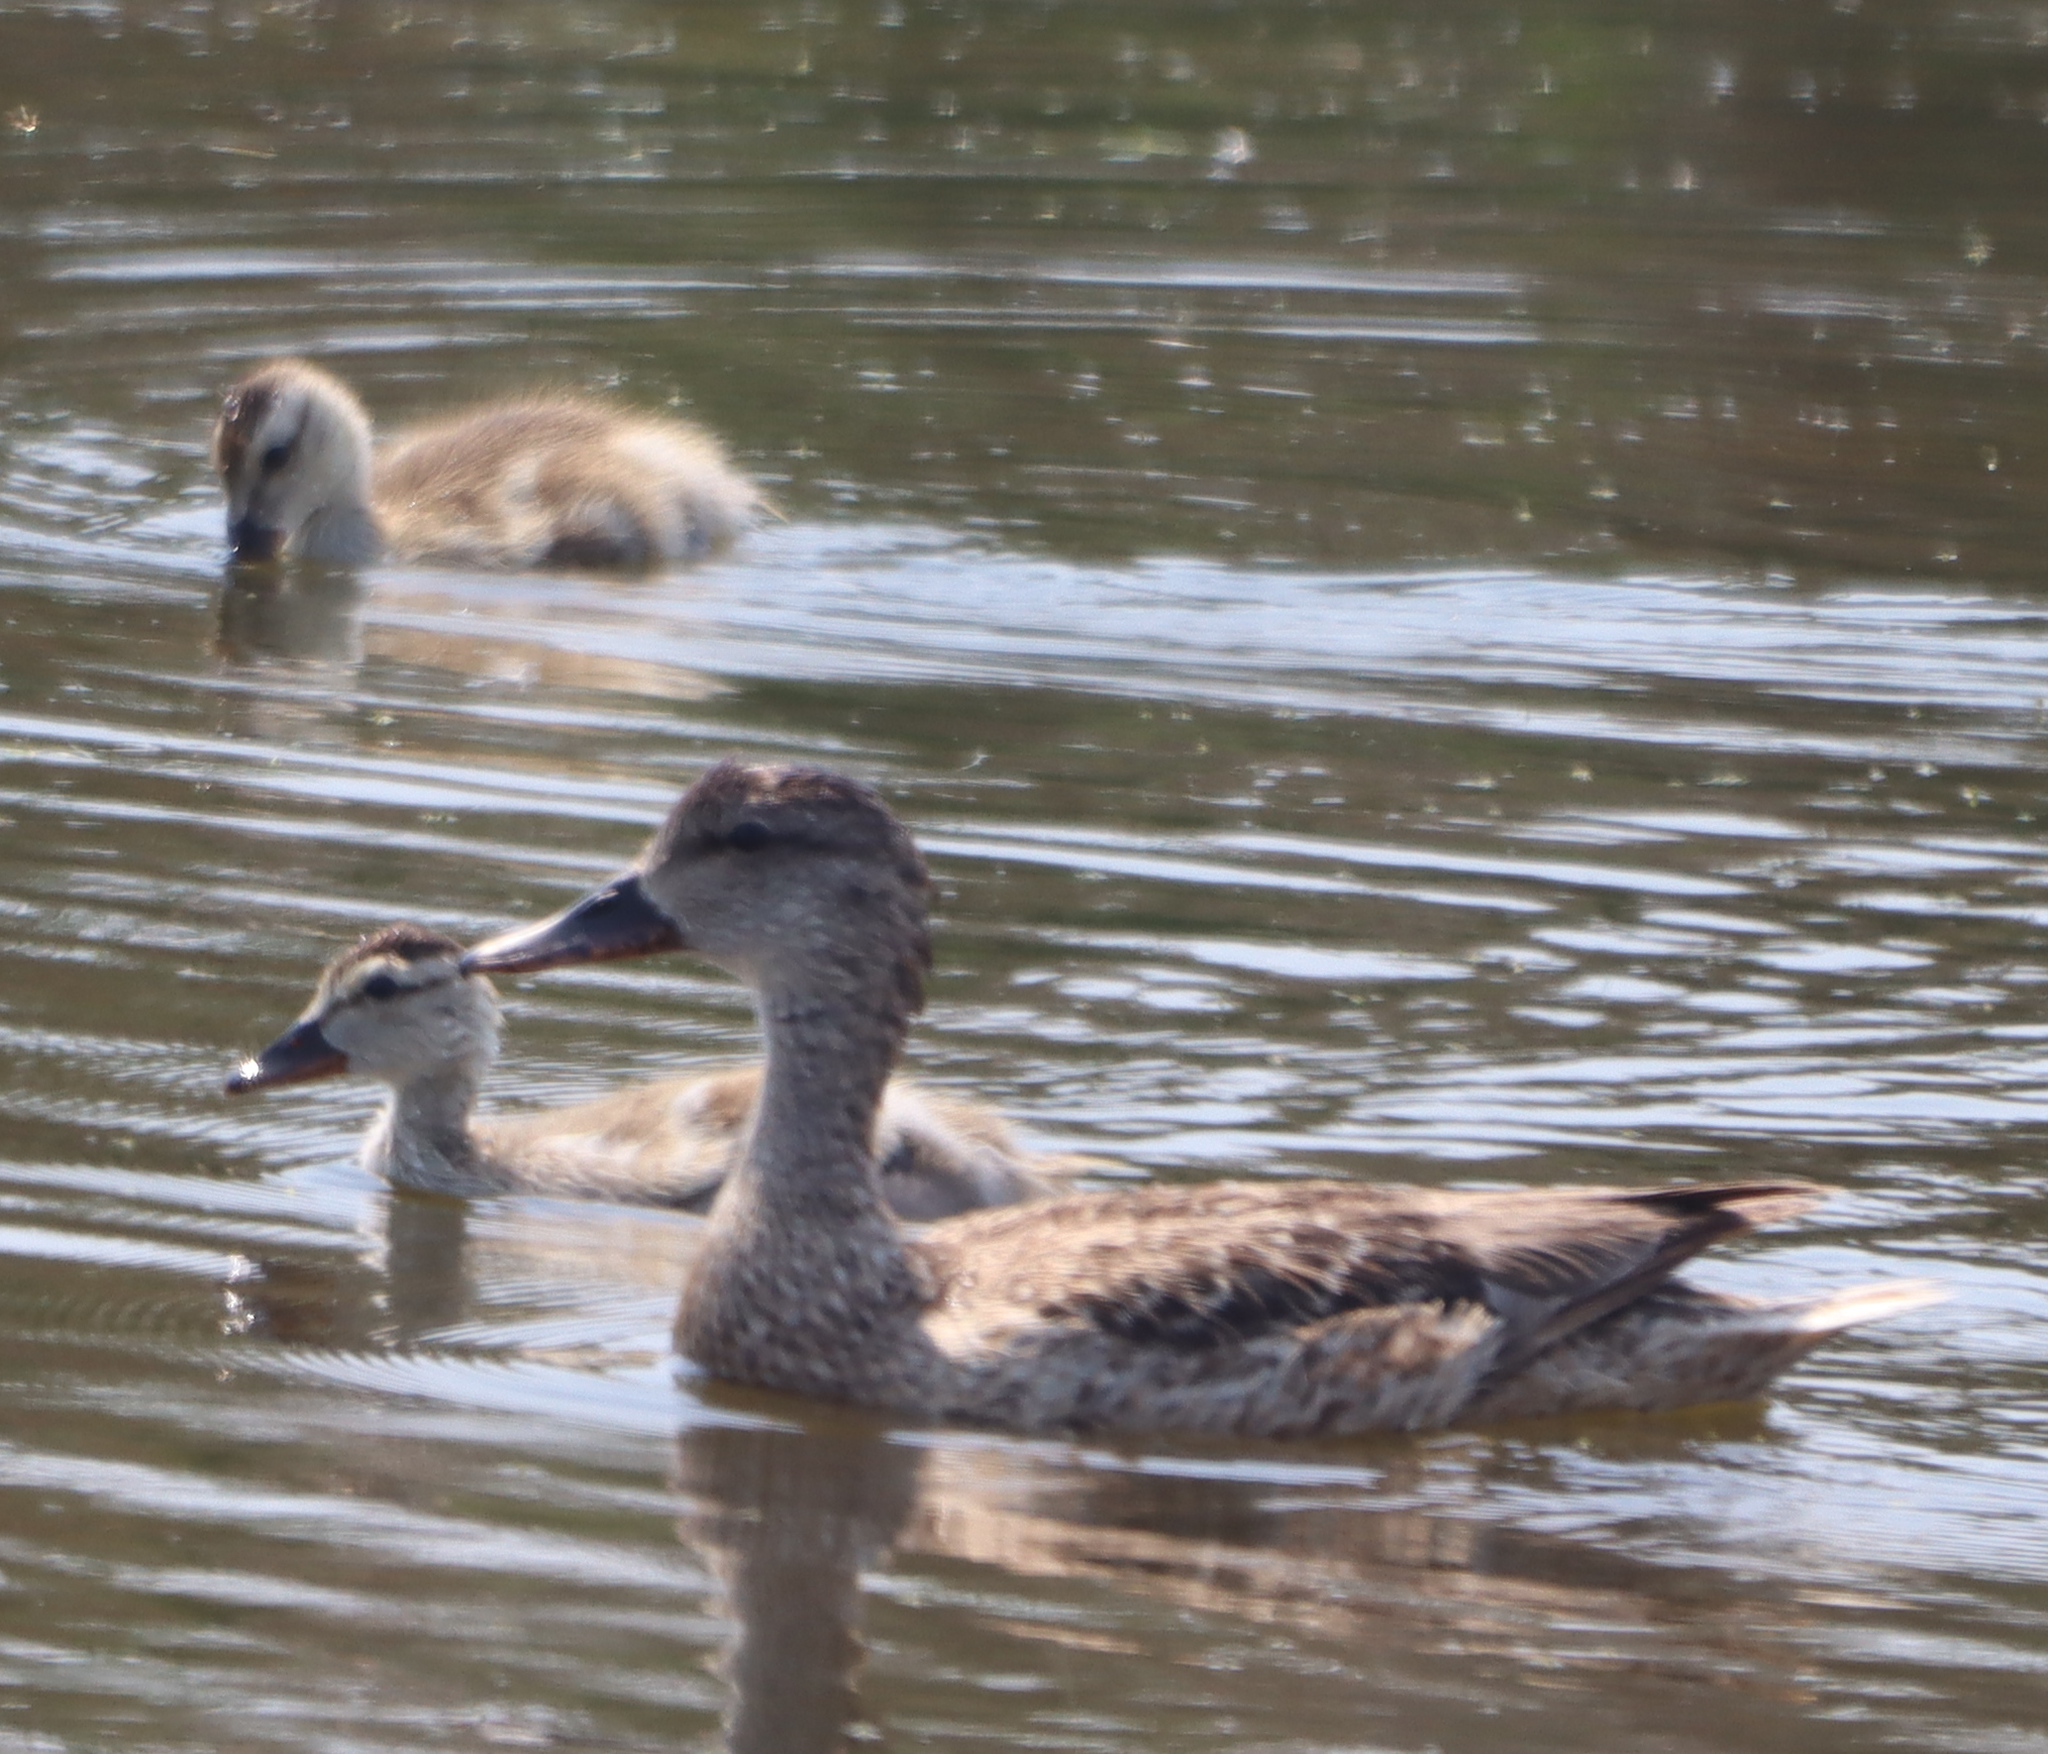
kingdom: Animalia
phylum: Chordata
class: Aves
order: Anseriformes
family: Anatidae
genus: Mareca
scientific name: Mareca strepera
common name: Gadwall
